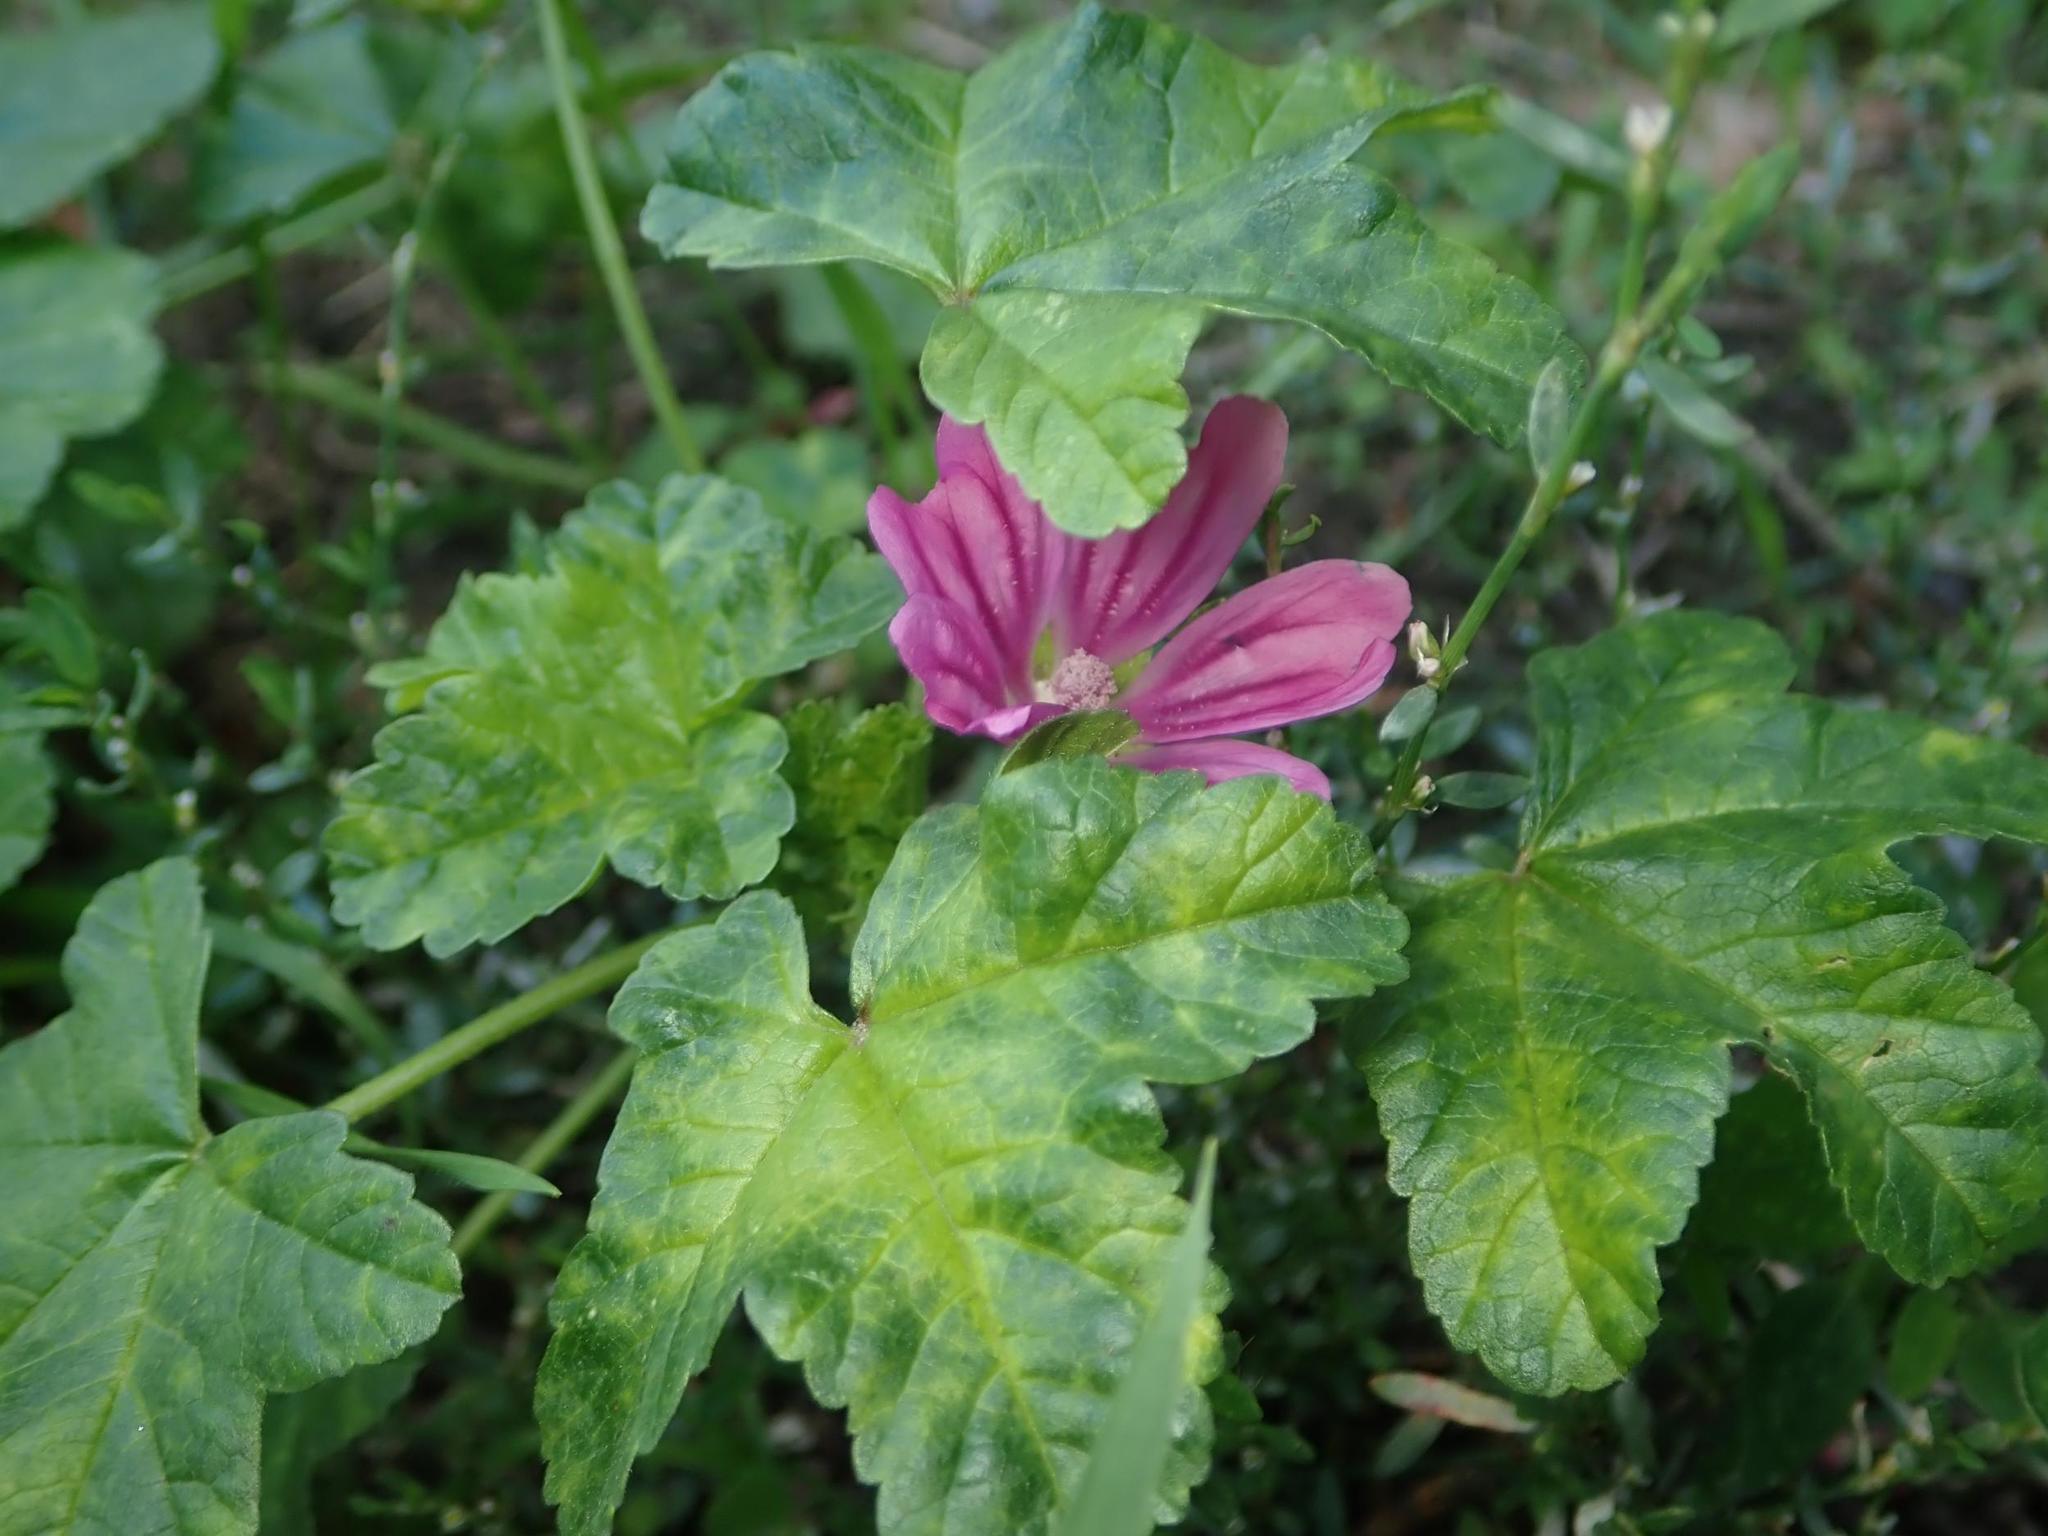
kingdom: Plantae
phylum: Tracheophyta
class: Magnoliopsida
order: Malvales
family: Malvaceae
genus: Malva
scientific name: Malva sylvestris
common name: Common mallow
